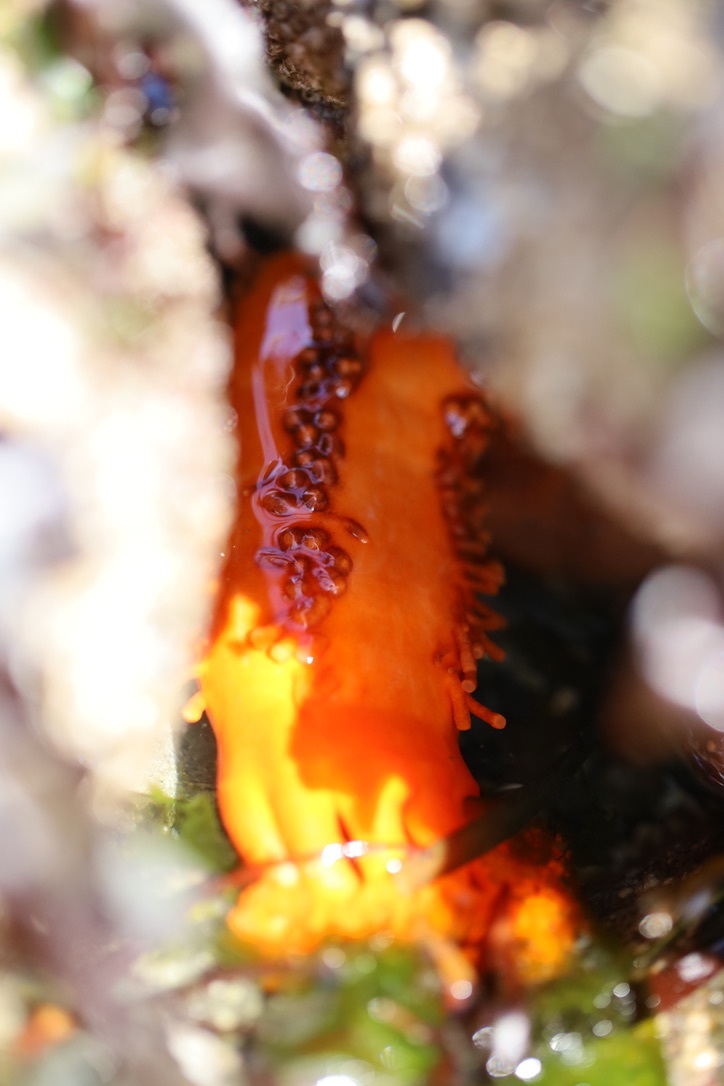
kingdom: Animalia
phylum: Echinodermata
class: Holothuroidea
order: Dendrochirotida
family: Cucumariidae
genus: Cucumaria
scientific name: Cucumaria miniata
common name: Orange sea cucumber
